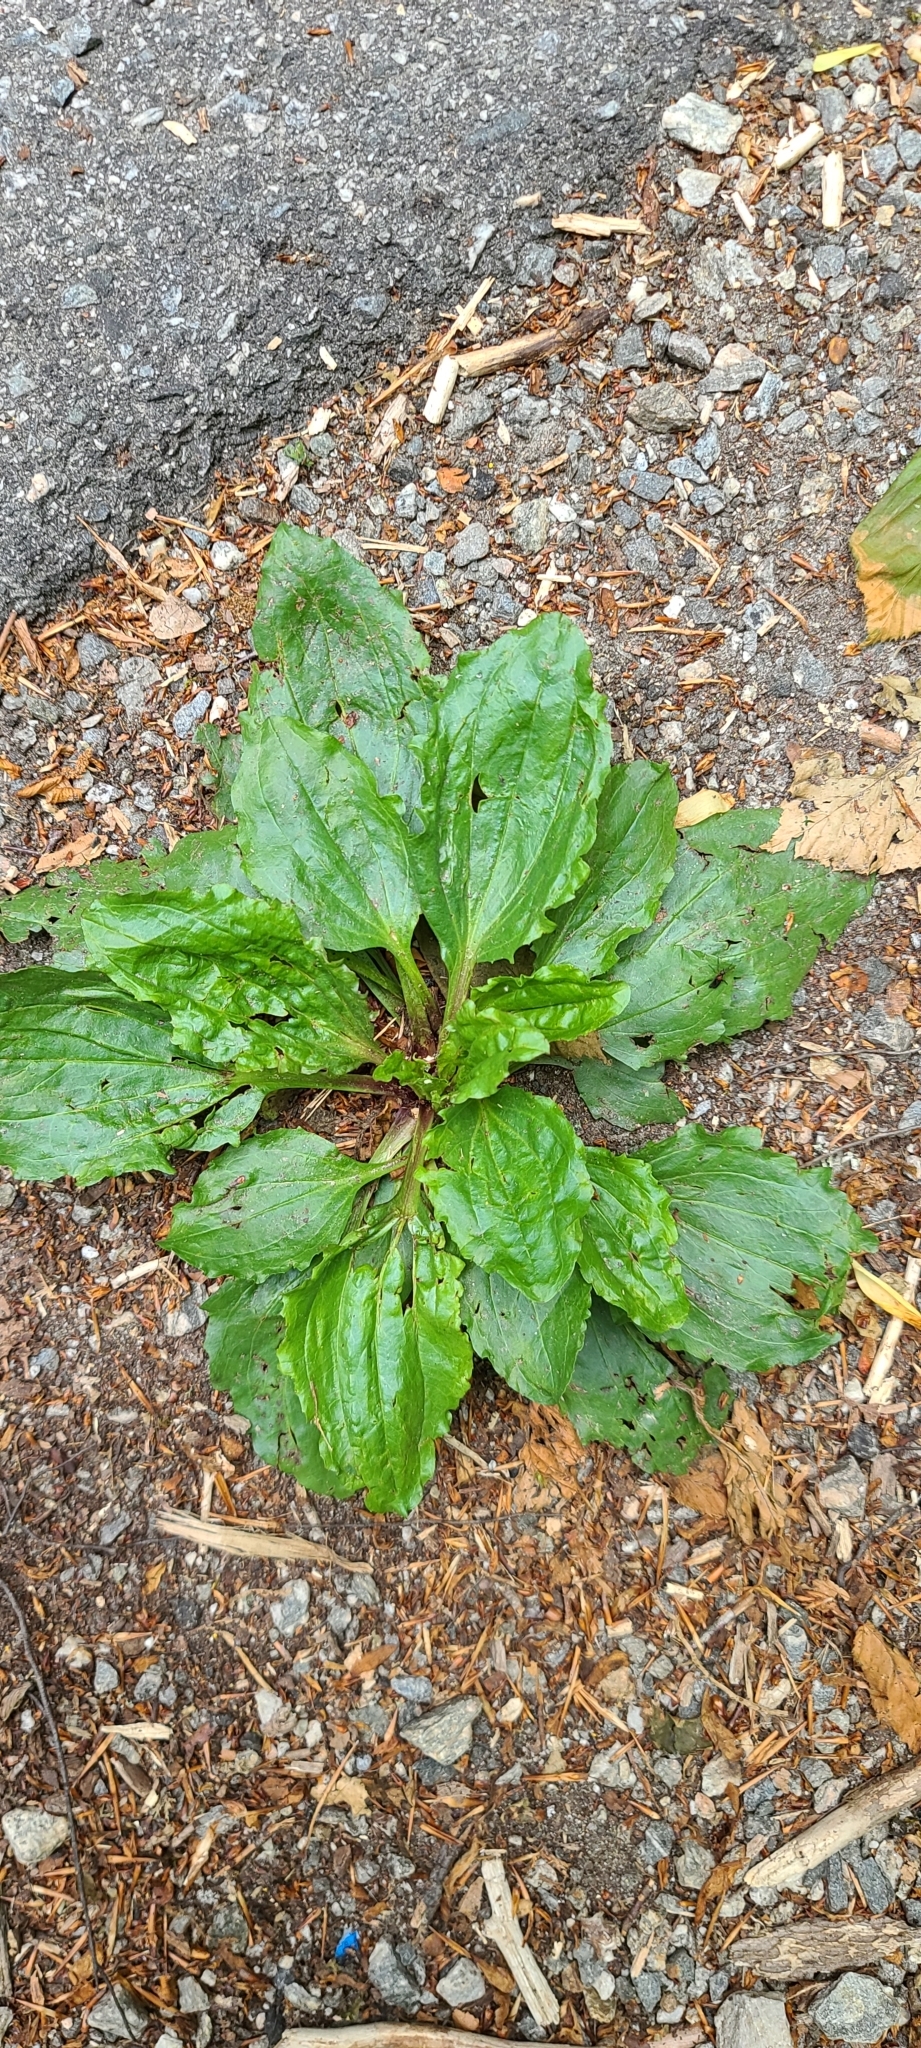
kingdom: Plantae
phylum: Tracheophyta
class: Magnoliopsida
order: Lamiales
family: Plantaginaceae
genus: Plantago
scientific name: Plantago rugelii
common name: American plantain
